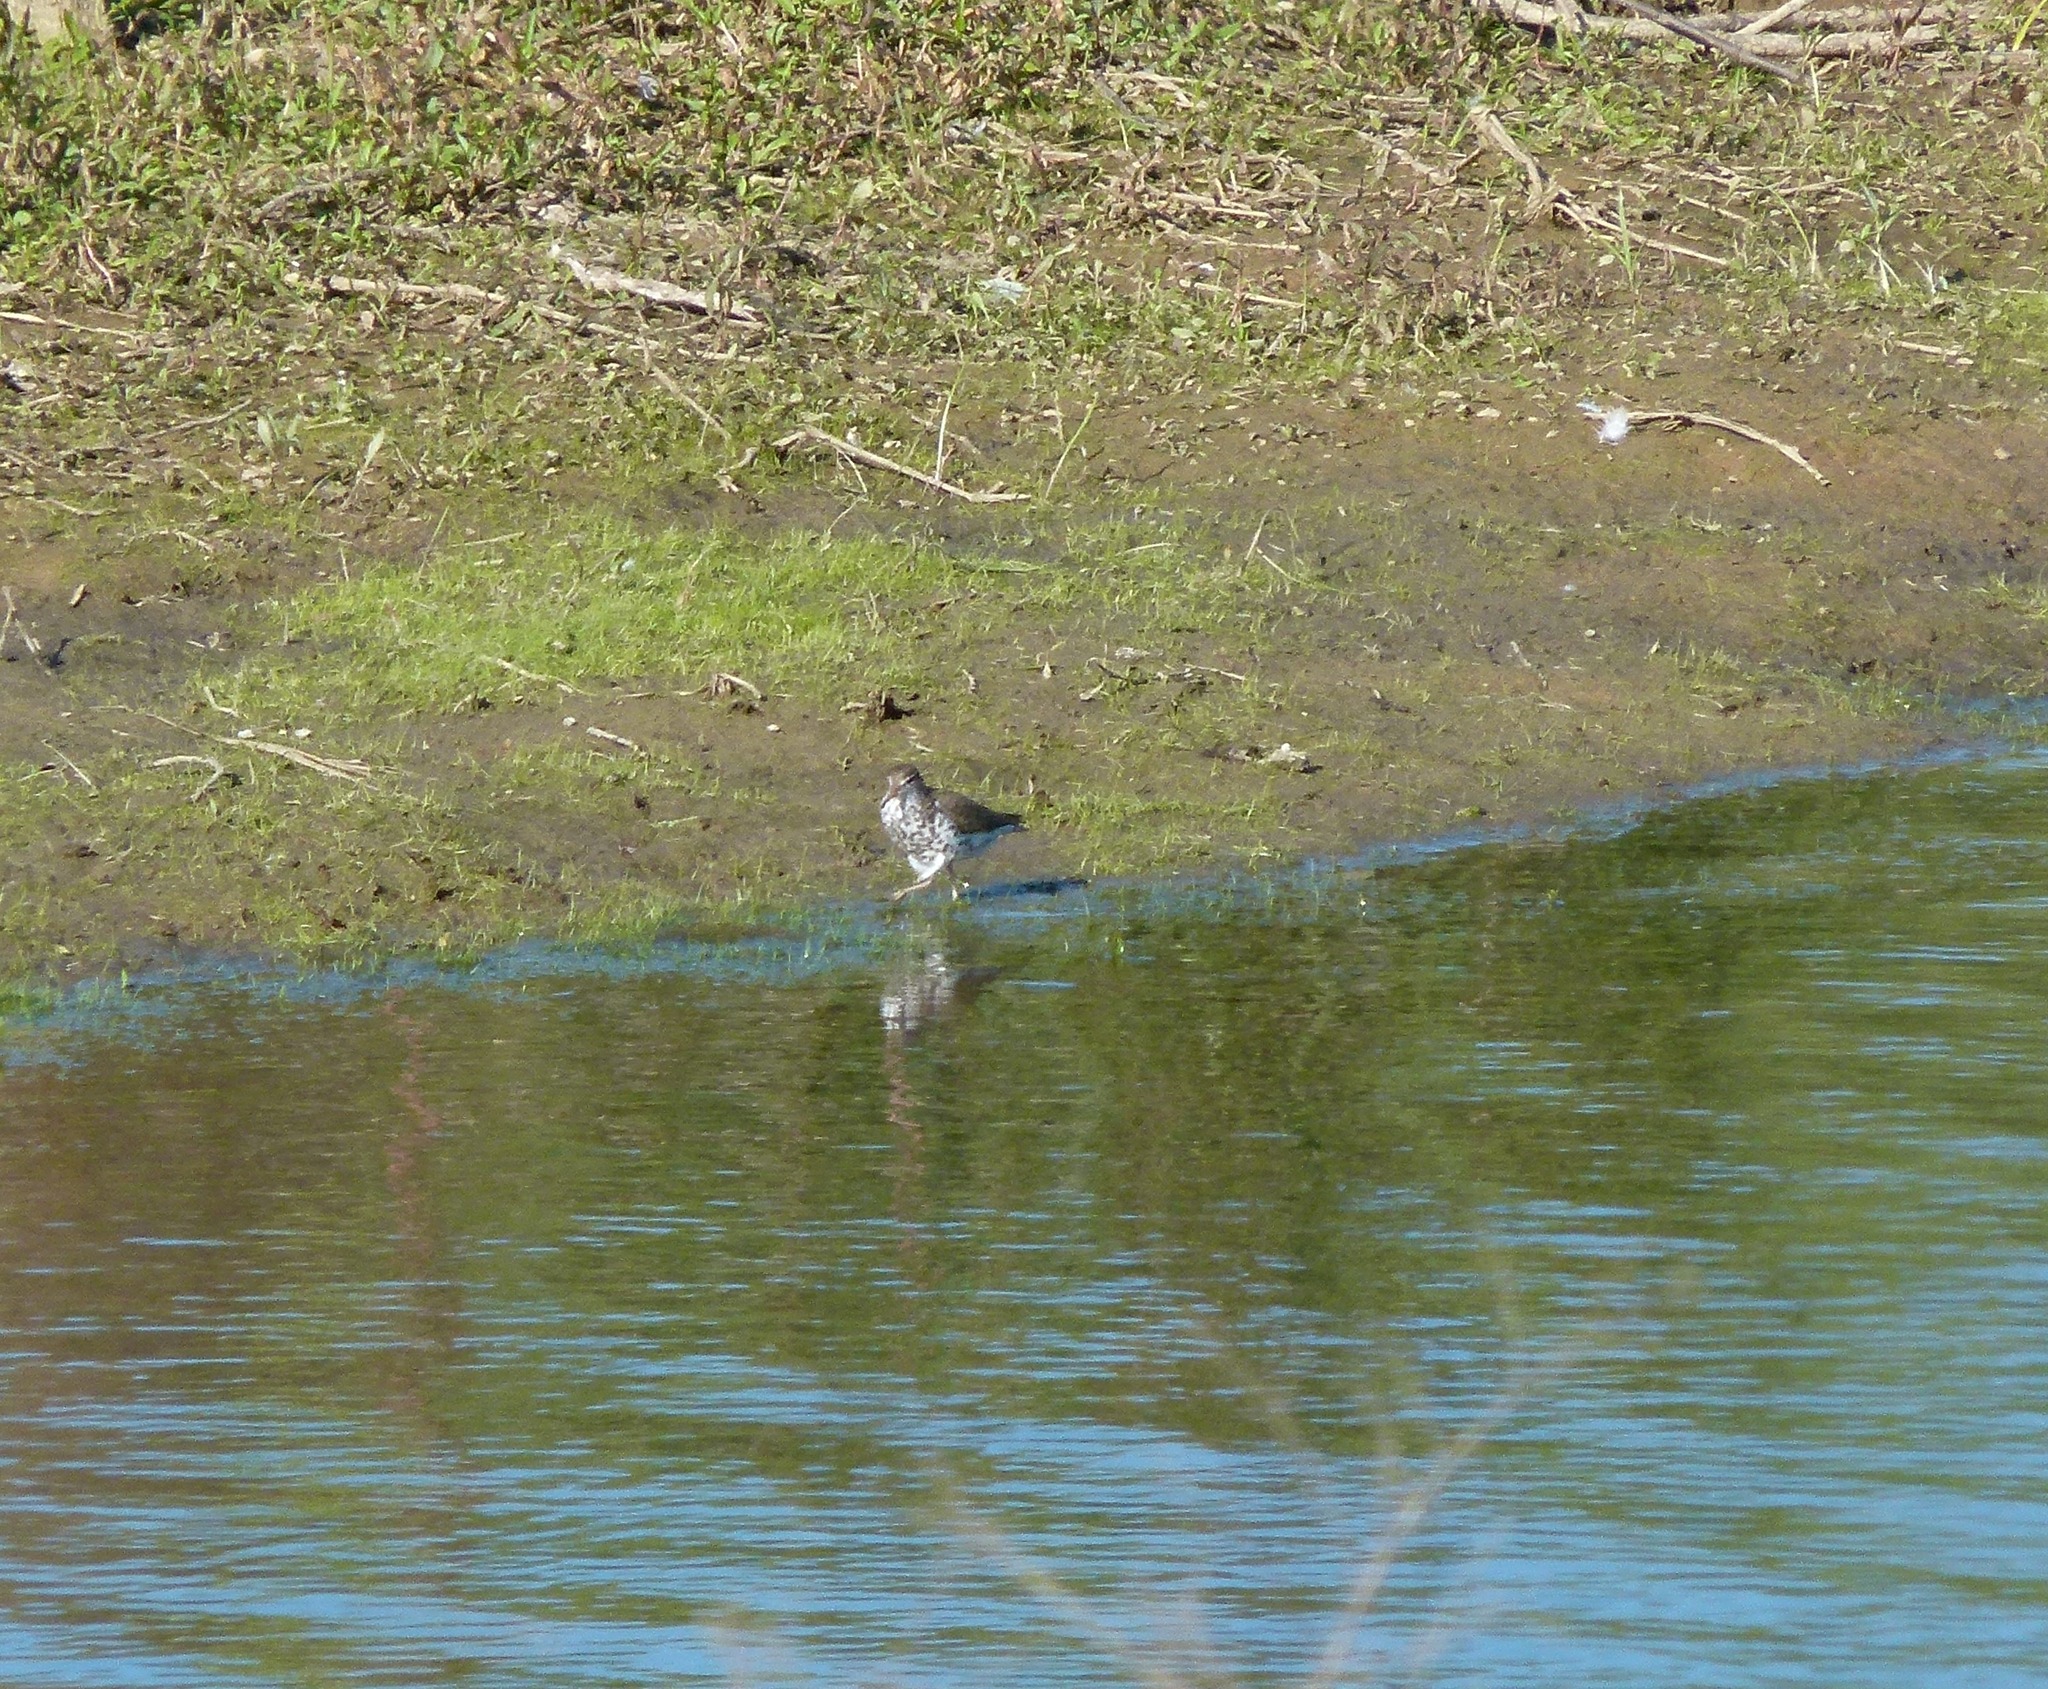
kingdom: Animalia
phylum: Chordata
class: Aves
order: Charadriiformes
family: Scolopacidae
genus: Actitis
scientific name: Actitis macularius
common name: Spotted sandpiper
